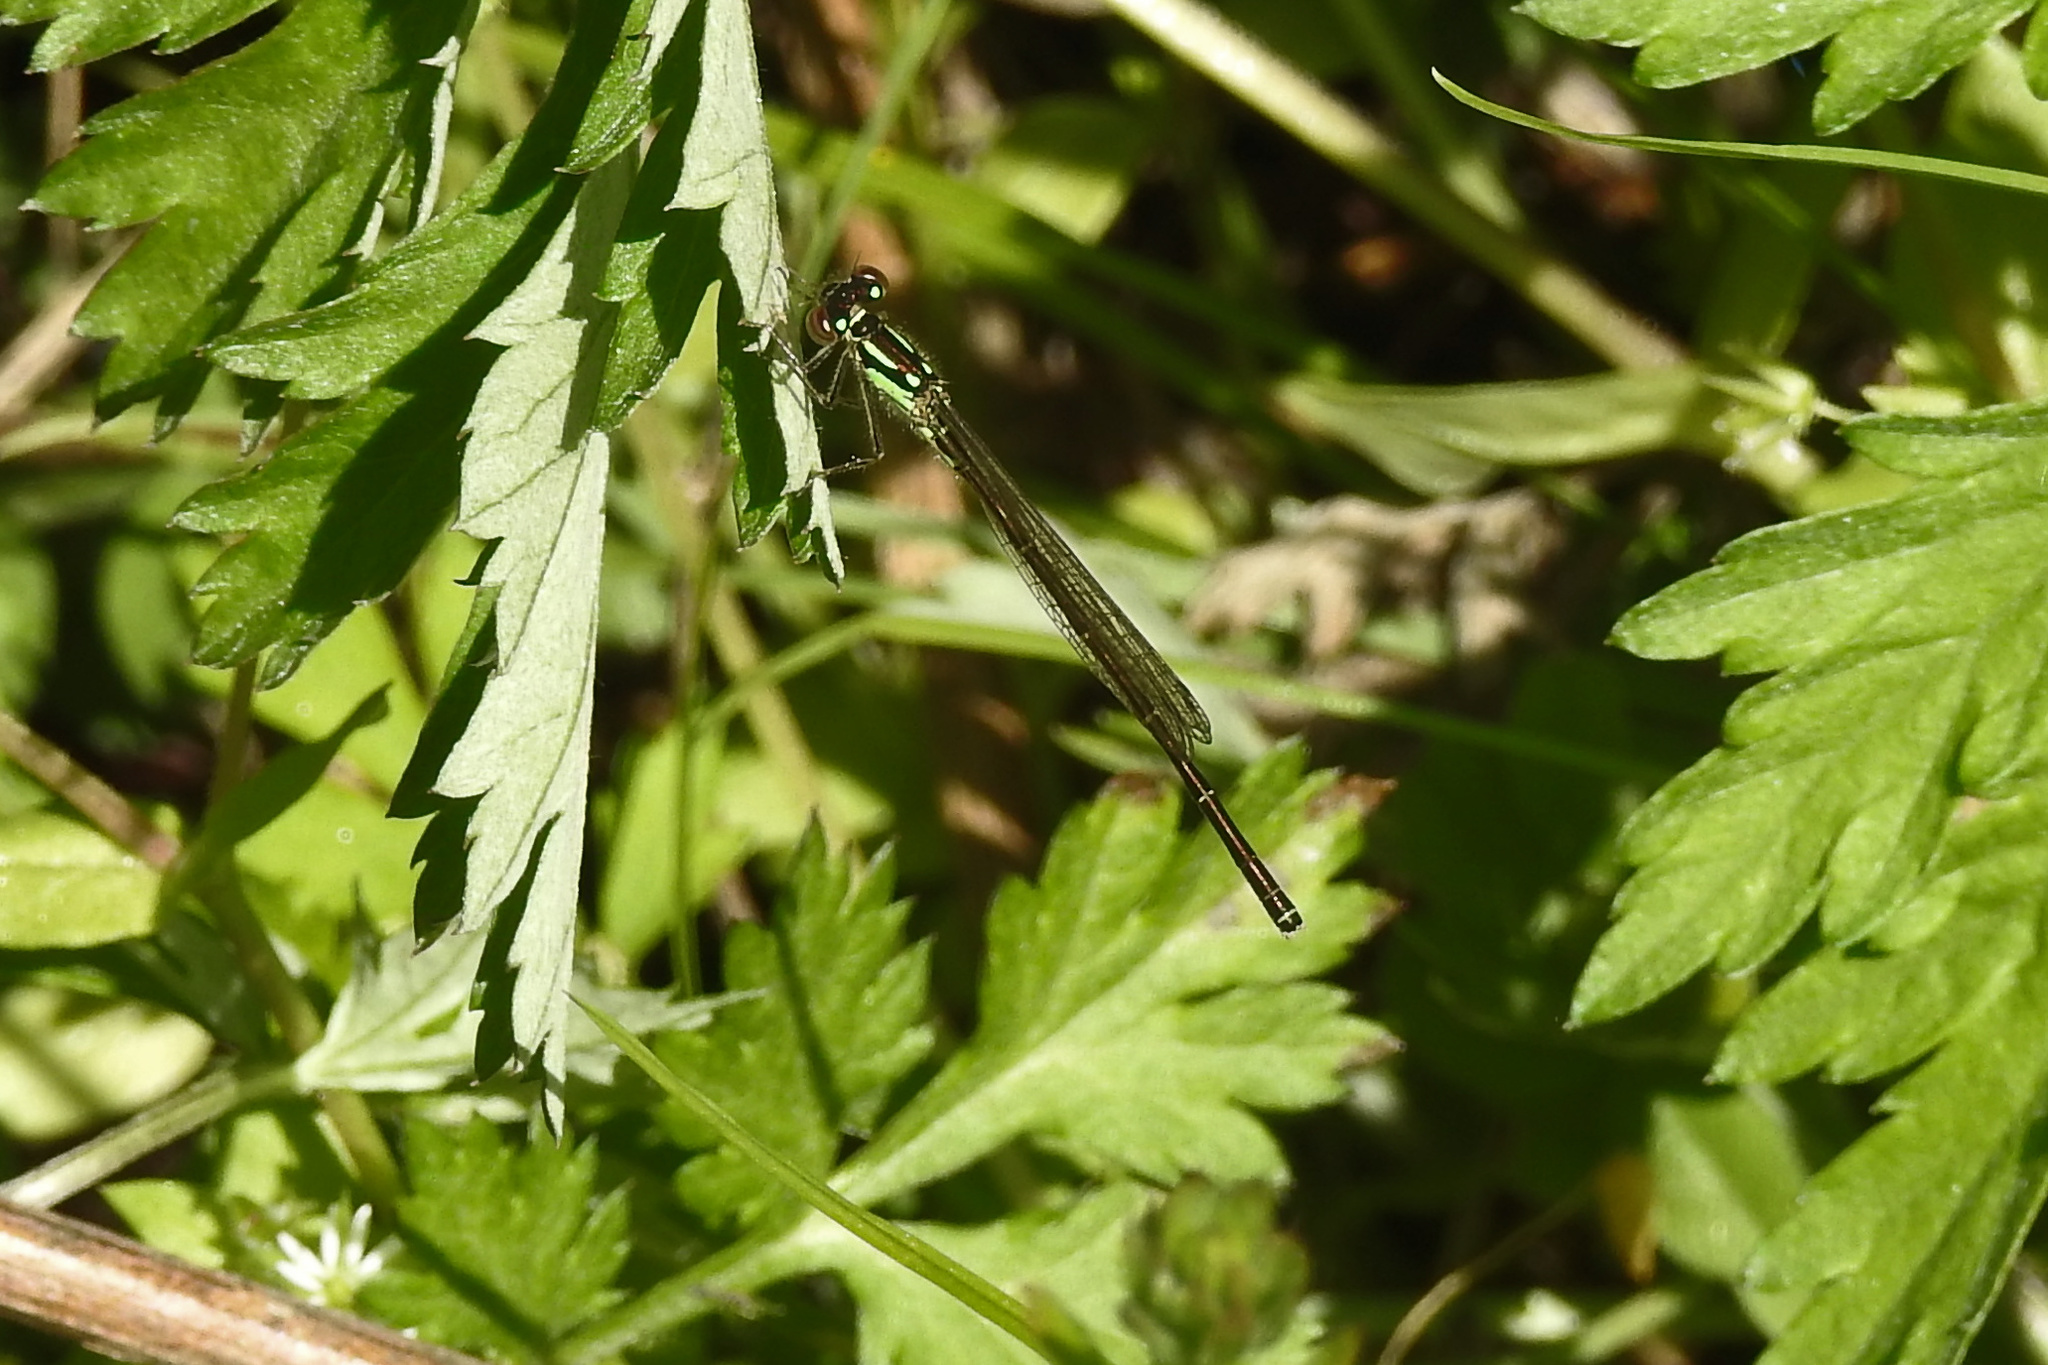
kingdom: Animalia
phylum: Arthropoda
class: Insecta
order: Odonata
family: Coenagrionidae
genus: Ischnura
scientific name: Ischnura posita
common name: Fragile forktail
